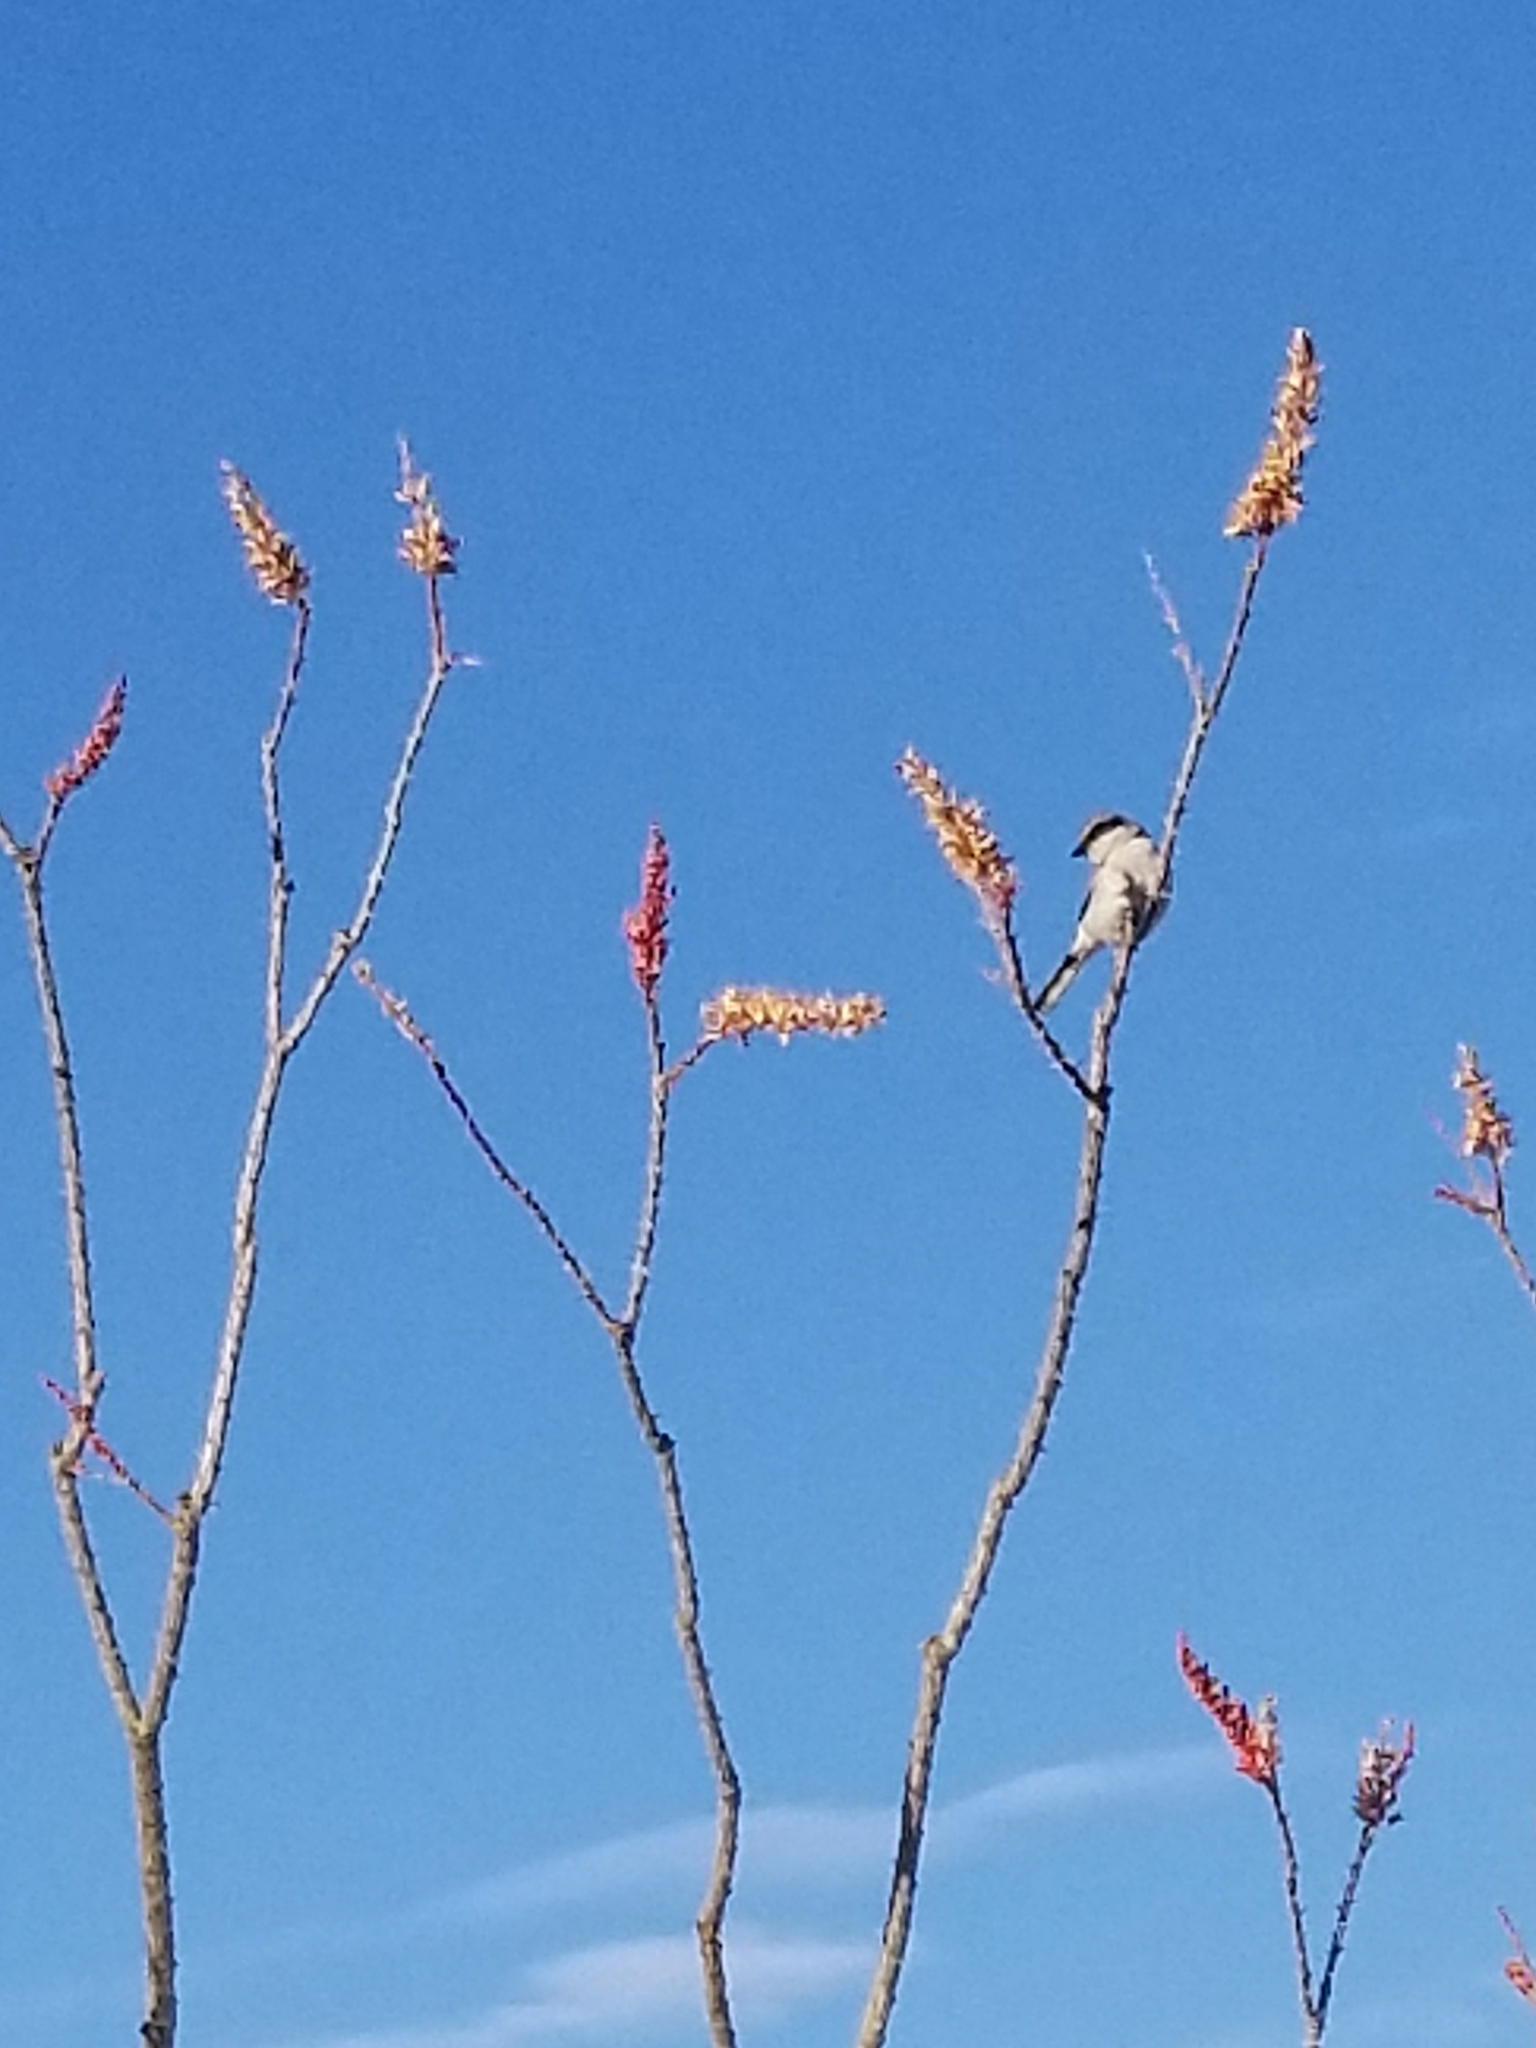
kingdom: Animalia
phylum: Chordata
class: Aves
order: Passeriformes
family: Laniidae
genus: Lanius
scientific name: Lanius ludovicianus
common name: Loggerhead shrike
